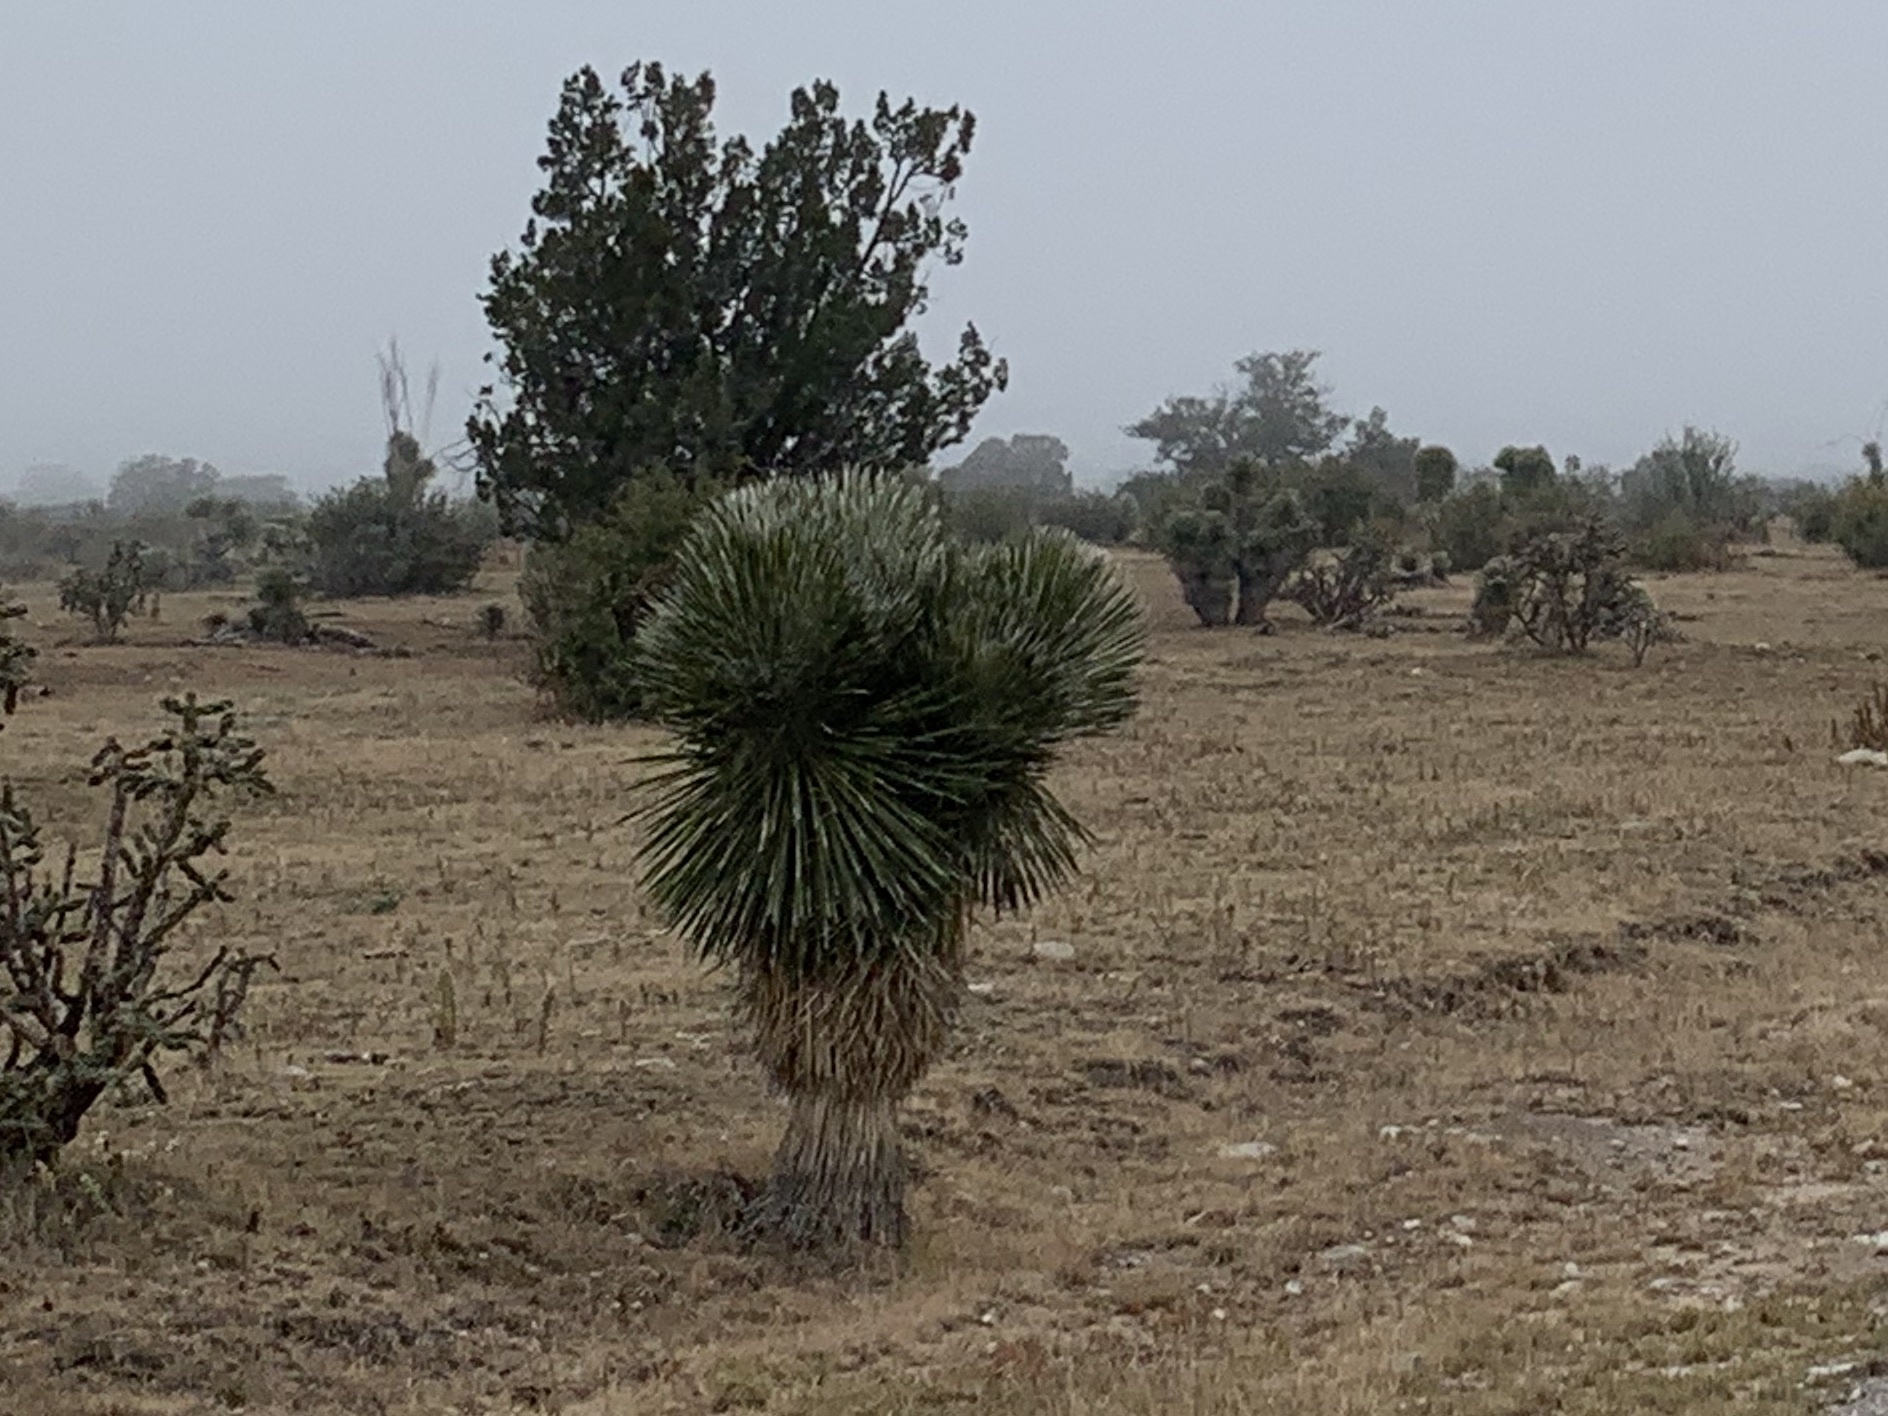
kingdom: Plantae
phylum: Tracheophyta
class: Liliopsida
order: Asparagales
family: Asparagaceae
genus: Yucca
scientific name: Yucca elata
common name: Palmella
